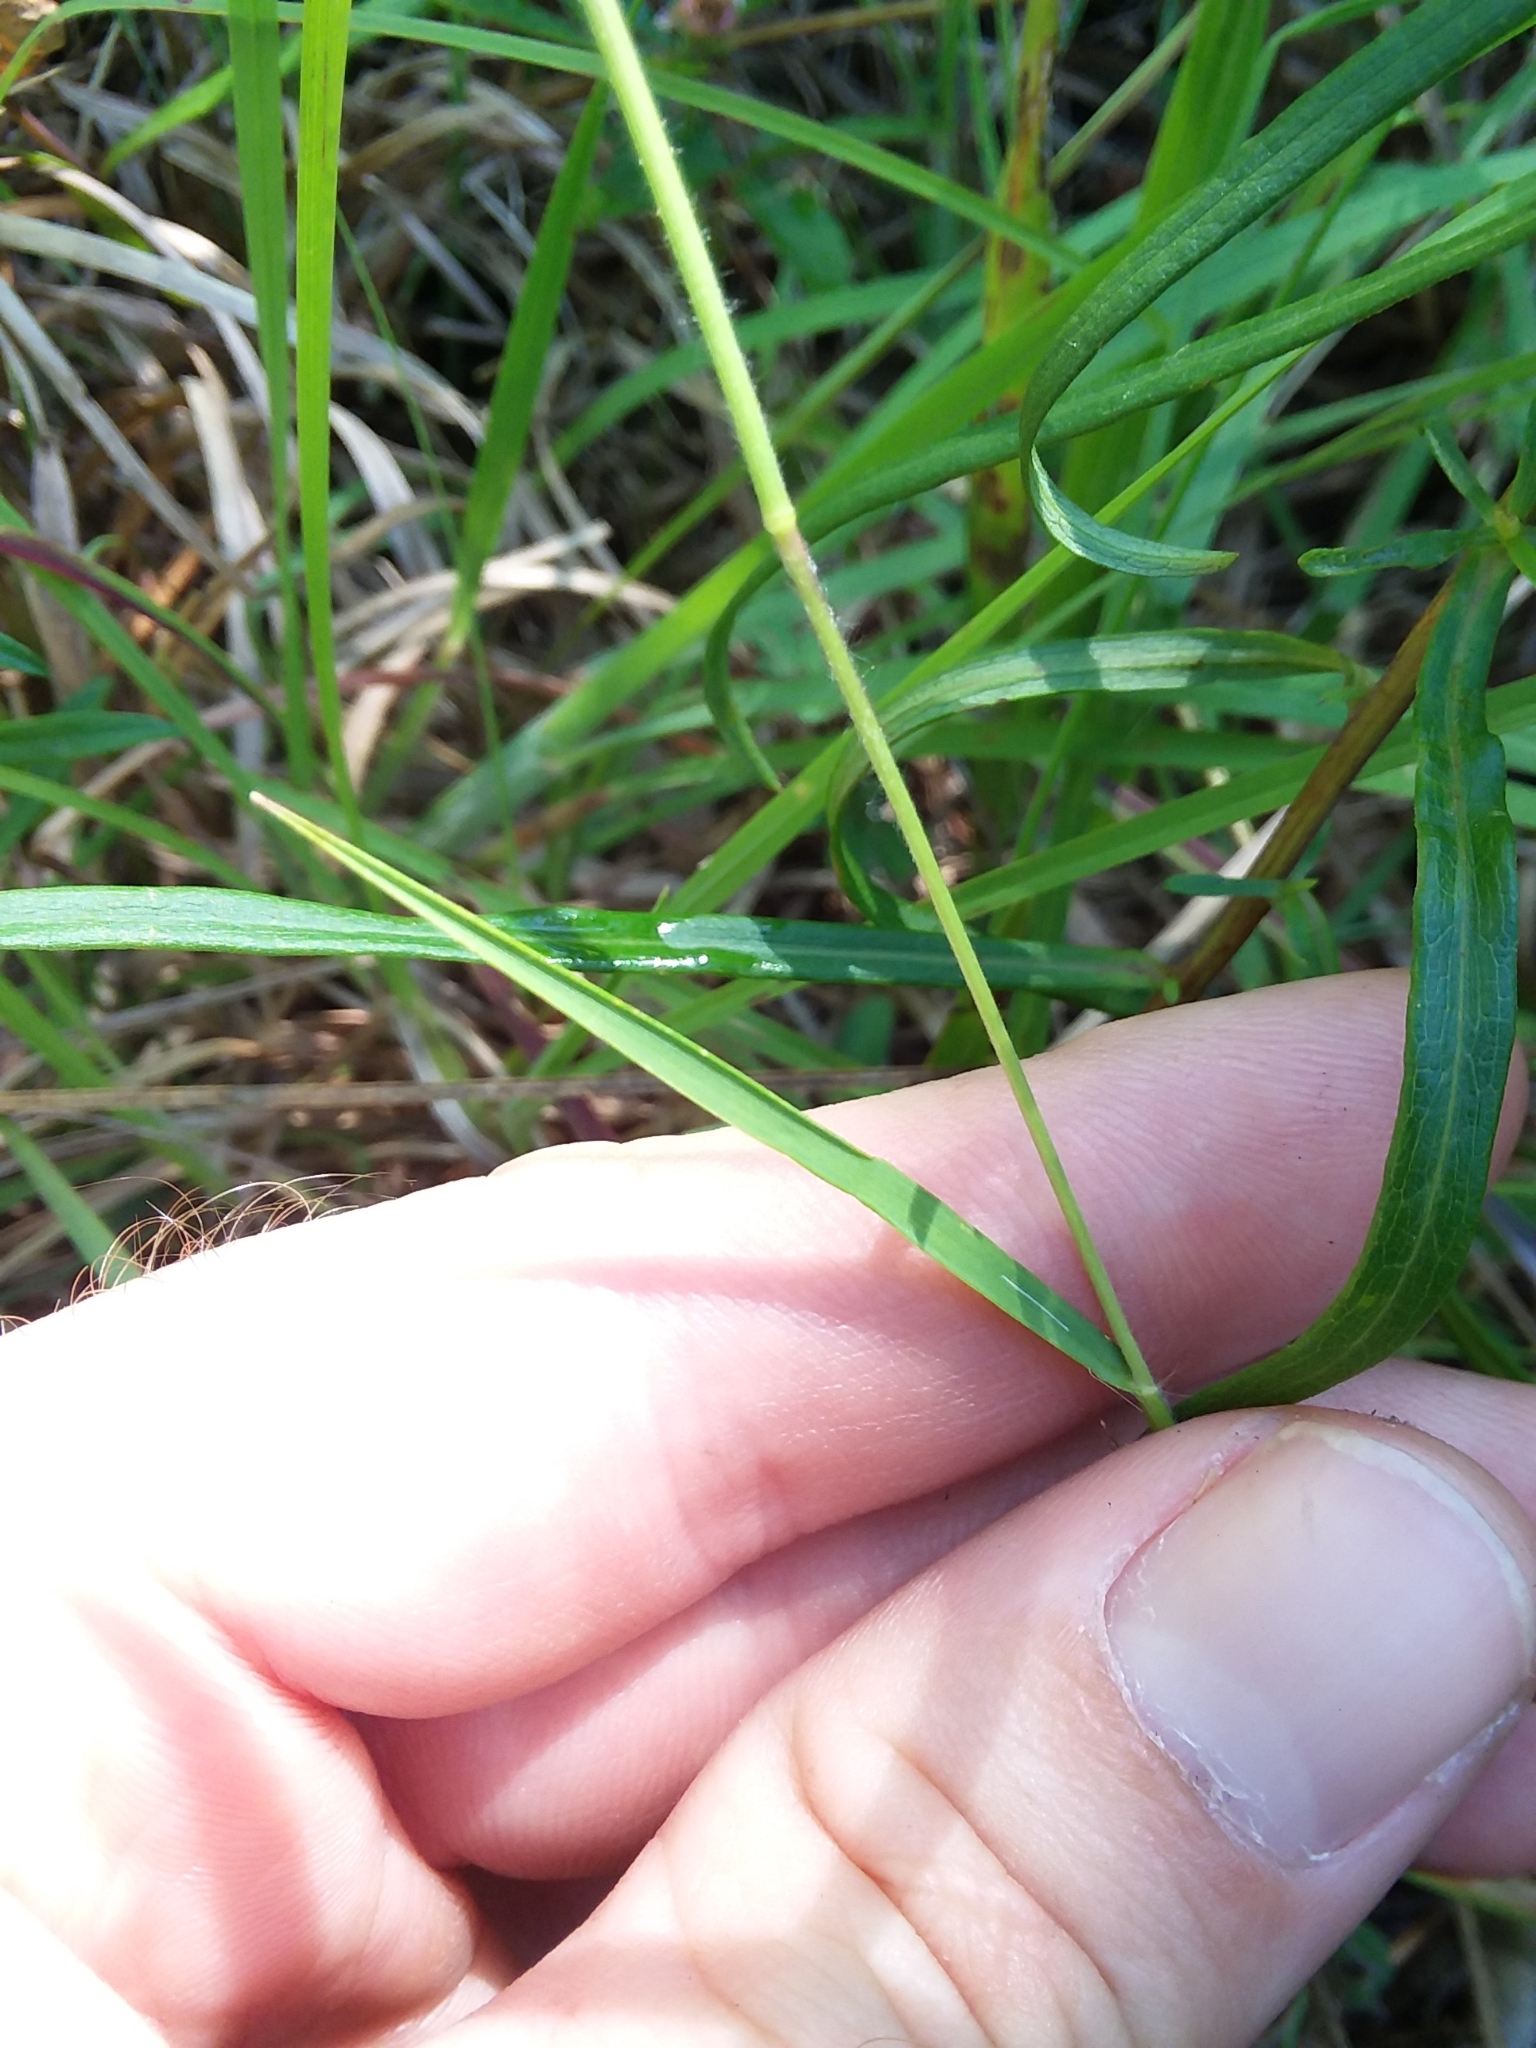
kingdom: Plantae
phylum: Tracheophyta
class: Liliopsida
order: Poales
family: Poaceae
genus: Dichanthelium
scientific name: Dichanthelium filiramum
